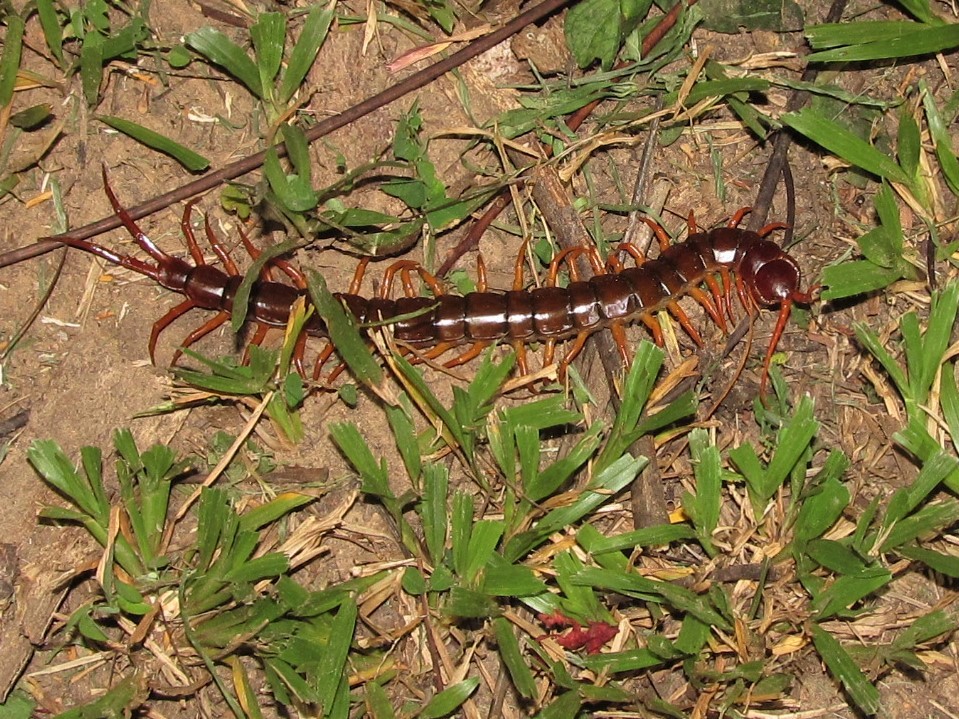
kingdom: Animalia
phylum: Arthropoda
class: Chilopoda
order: Scolopendromorpha
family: Scolopendridae
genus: Scolopendra
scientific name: Scolopendra dehaani
